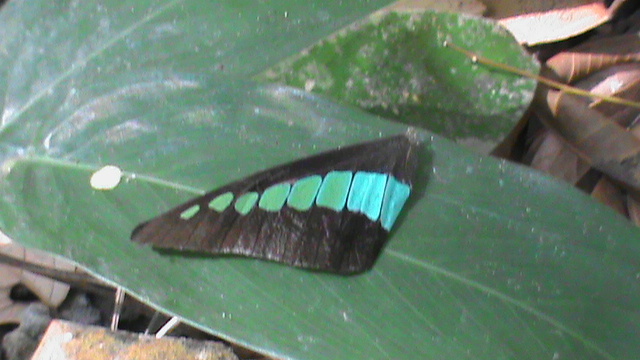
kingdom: Animalia
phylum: Arthropoda
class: Insecta
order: Lepidoptera
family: Papilionidae
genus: Graphium
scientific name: Graphium
